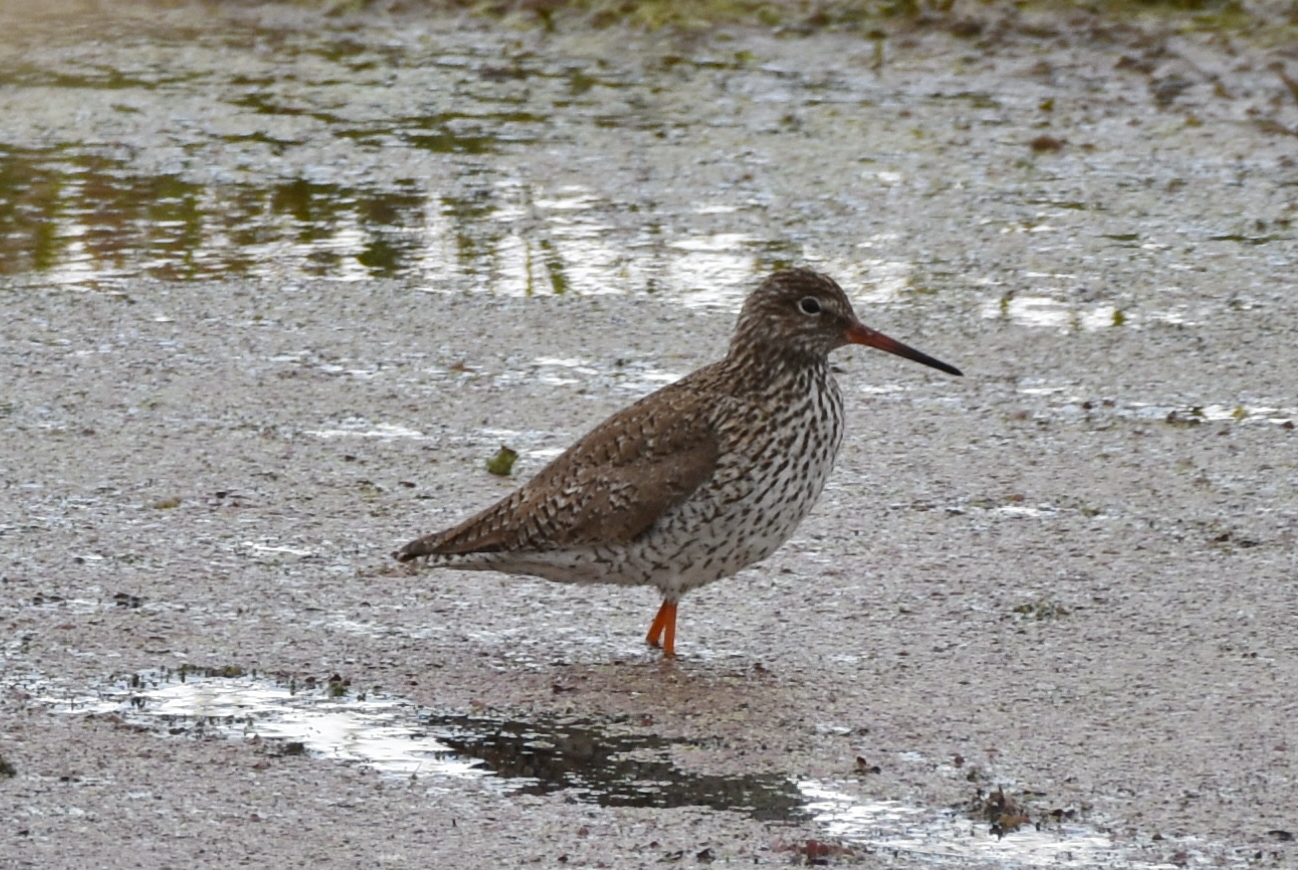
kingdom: Animalia
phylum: Chordata
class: Aves
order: Charadriiformes
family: Scolopacidae
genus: Tringa
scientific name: Tringa totanus
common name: Common redshank
